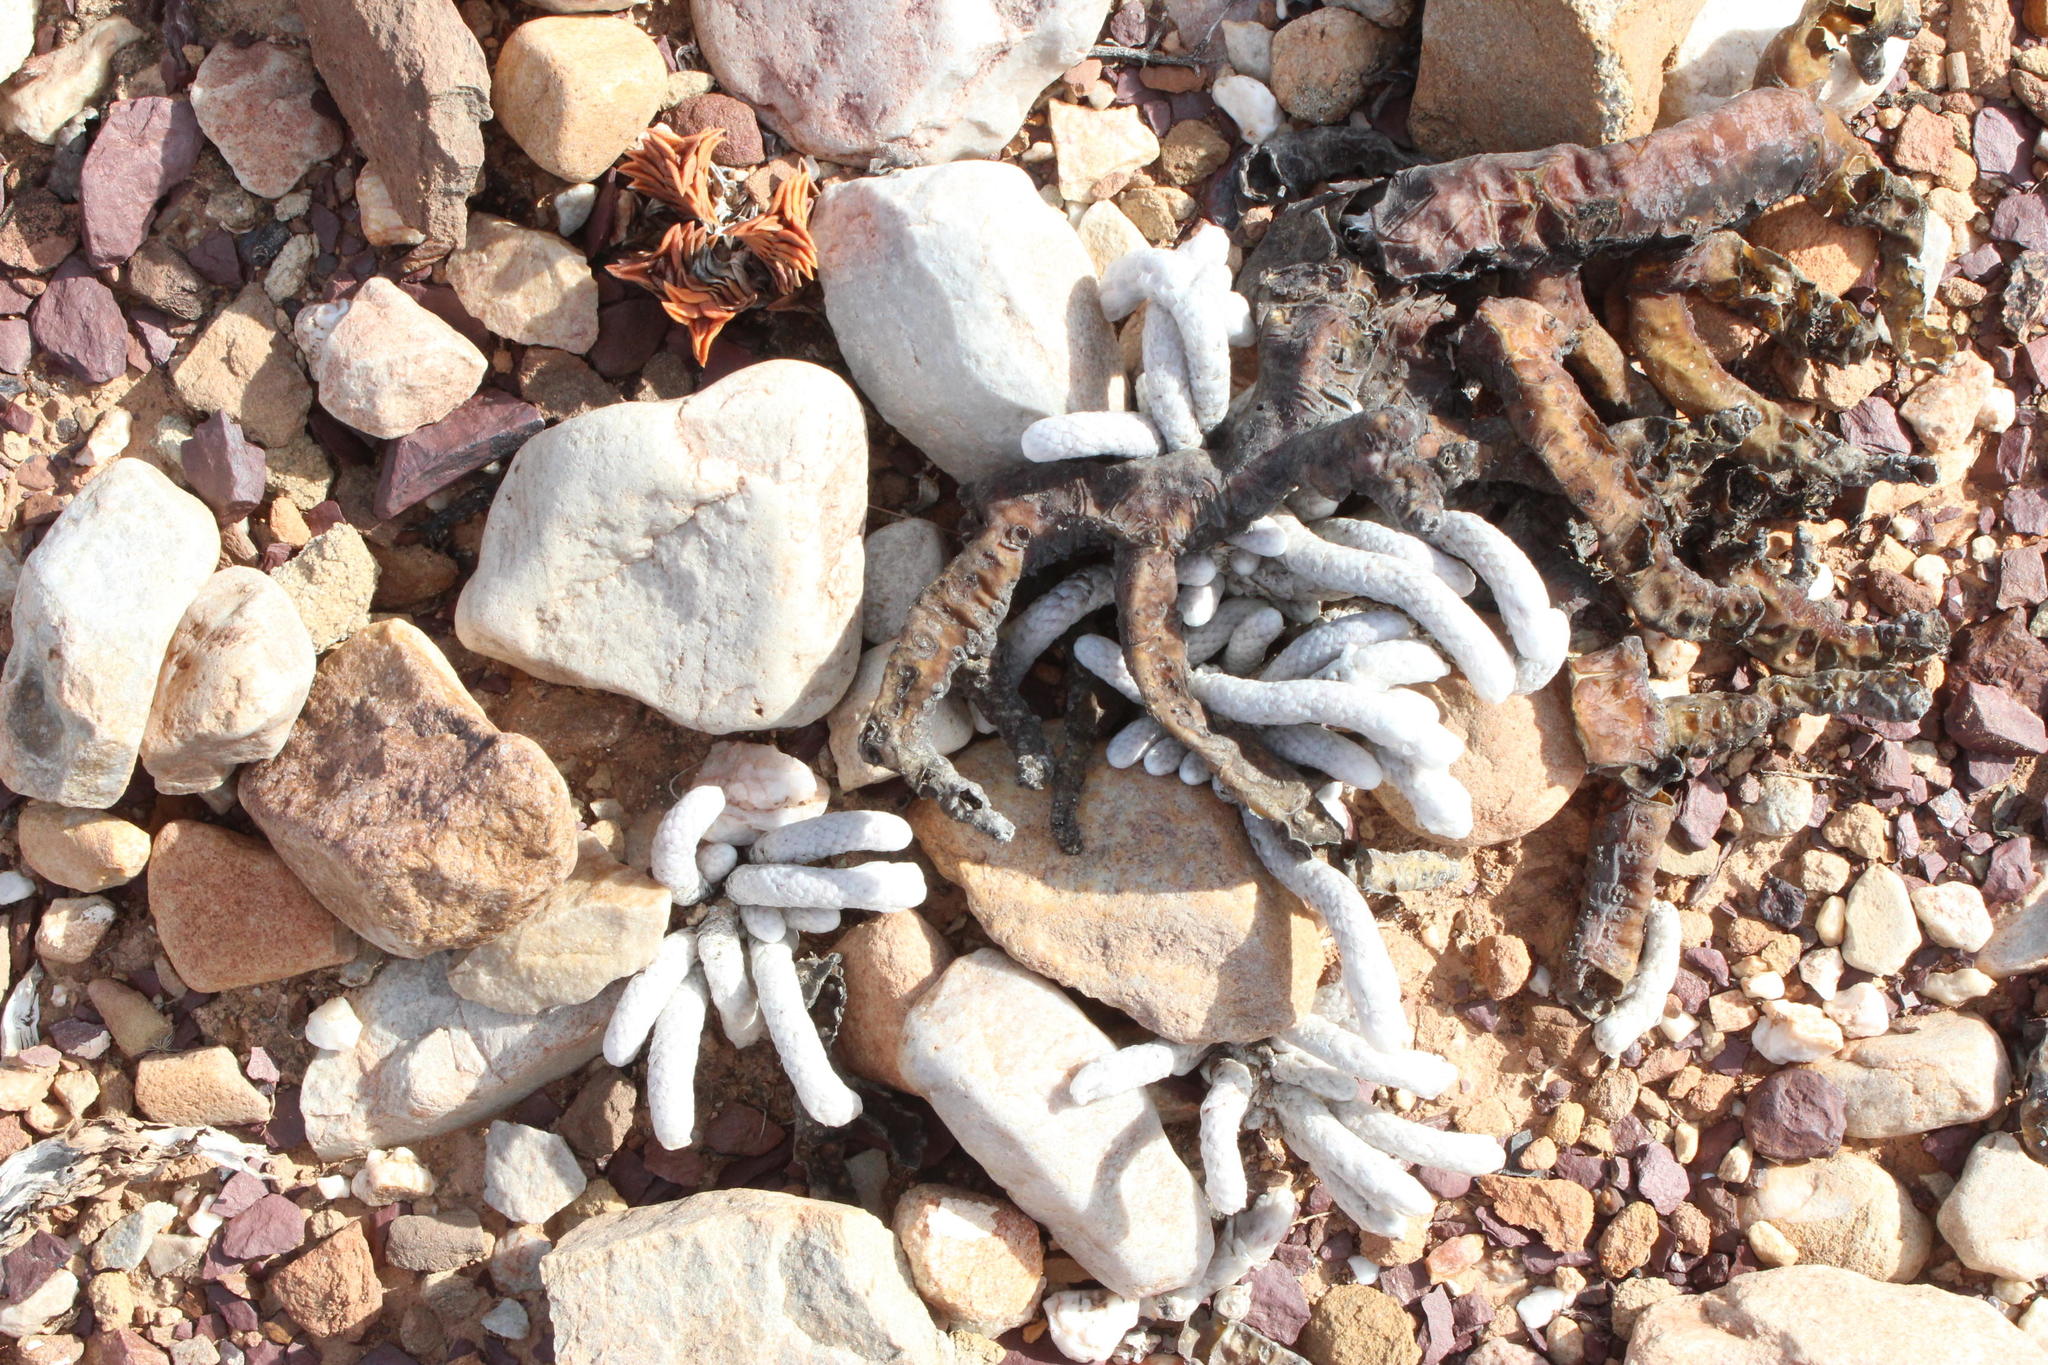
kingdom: Plantae
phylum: Tracheophyta
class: Magnoliopsida
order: Caryophyllales
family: Anacampserotaceae
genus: Avonia
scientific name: Avonia papyracea
